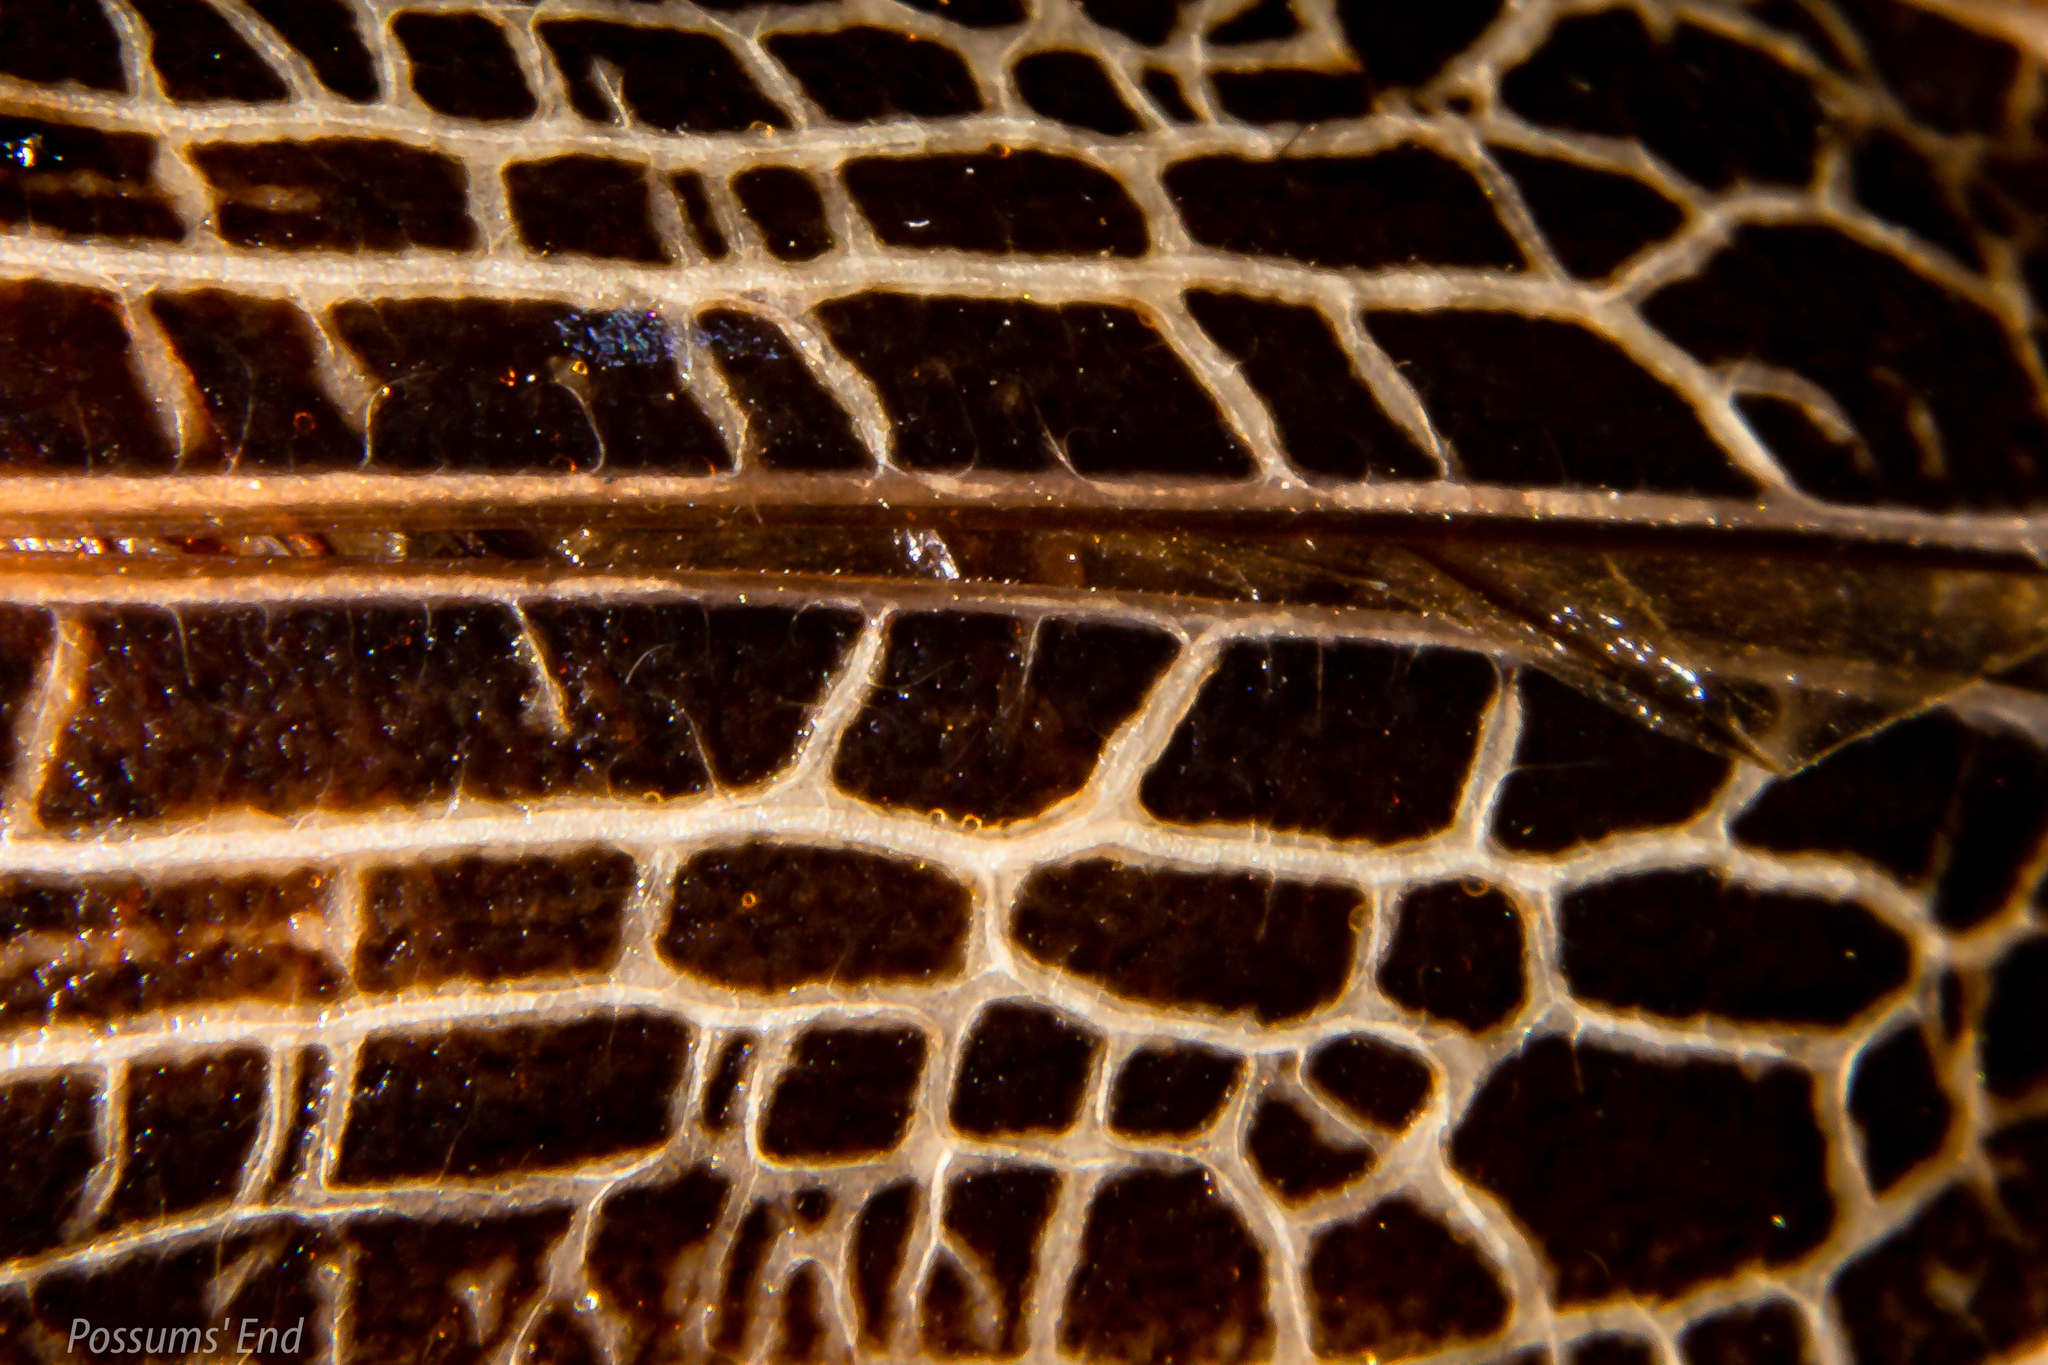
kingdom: Animalia
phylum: Arthropoda
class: Insecta
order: Coleoptera
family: Cerambycidae
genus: Prionoplus
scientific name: Prionoplus reticularis
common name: Huhu beetle
